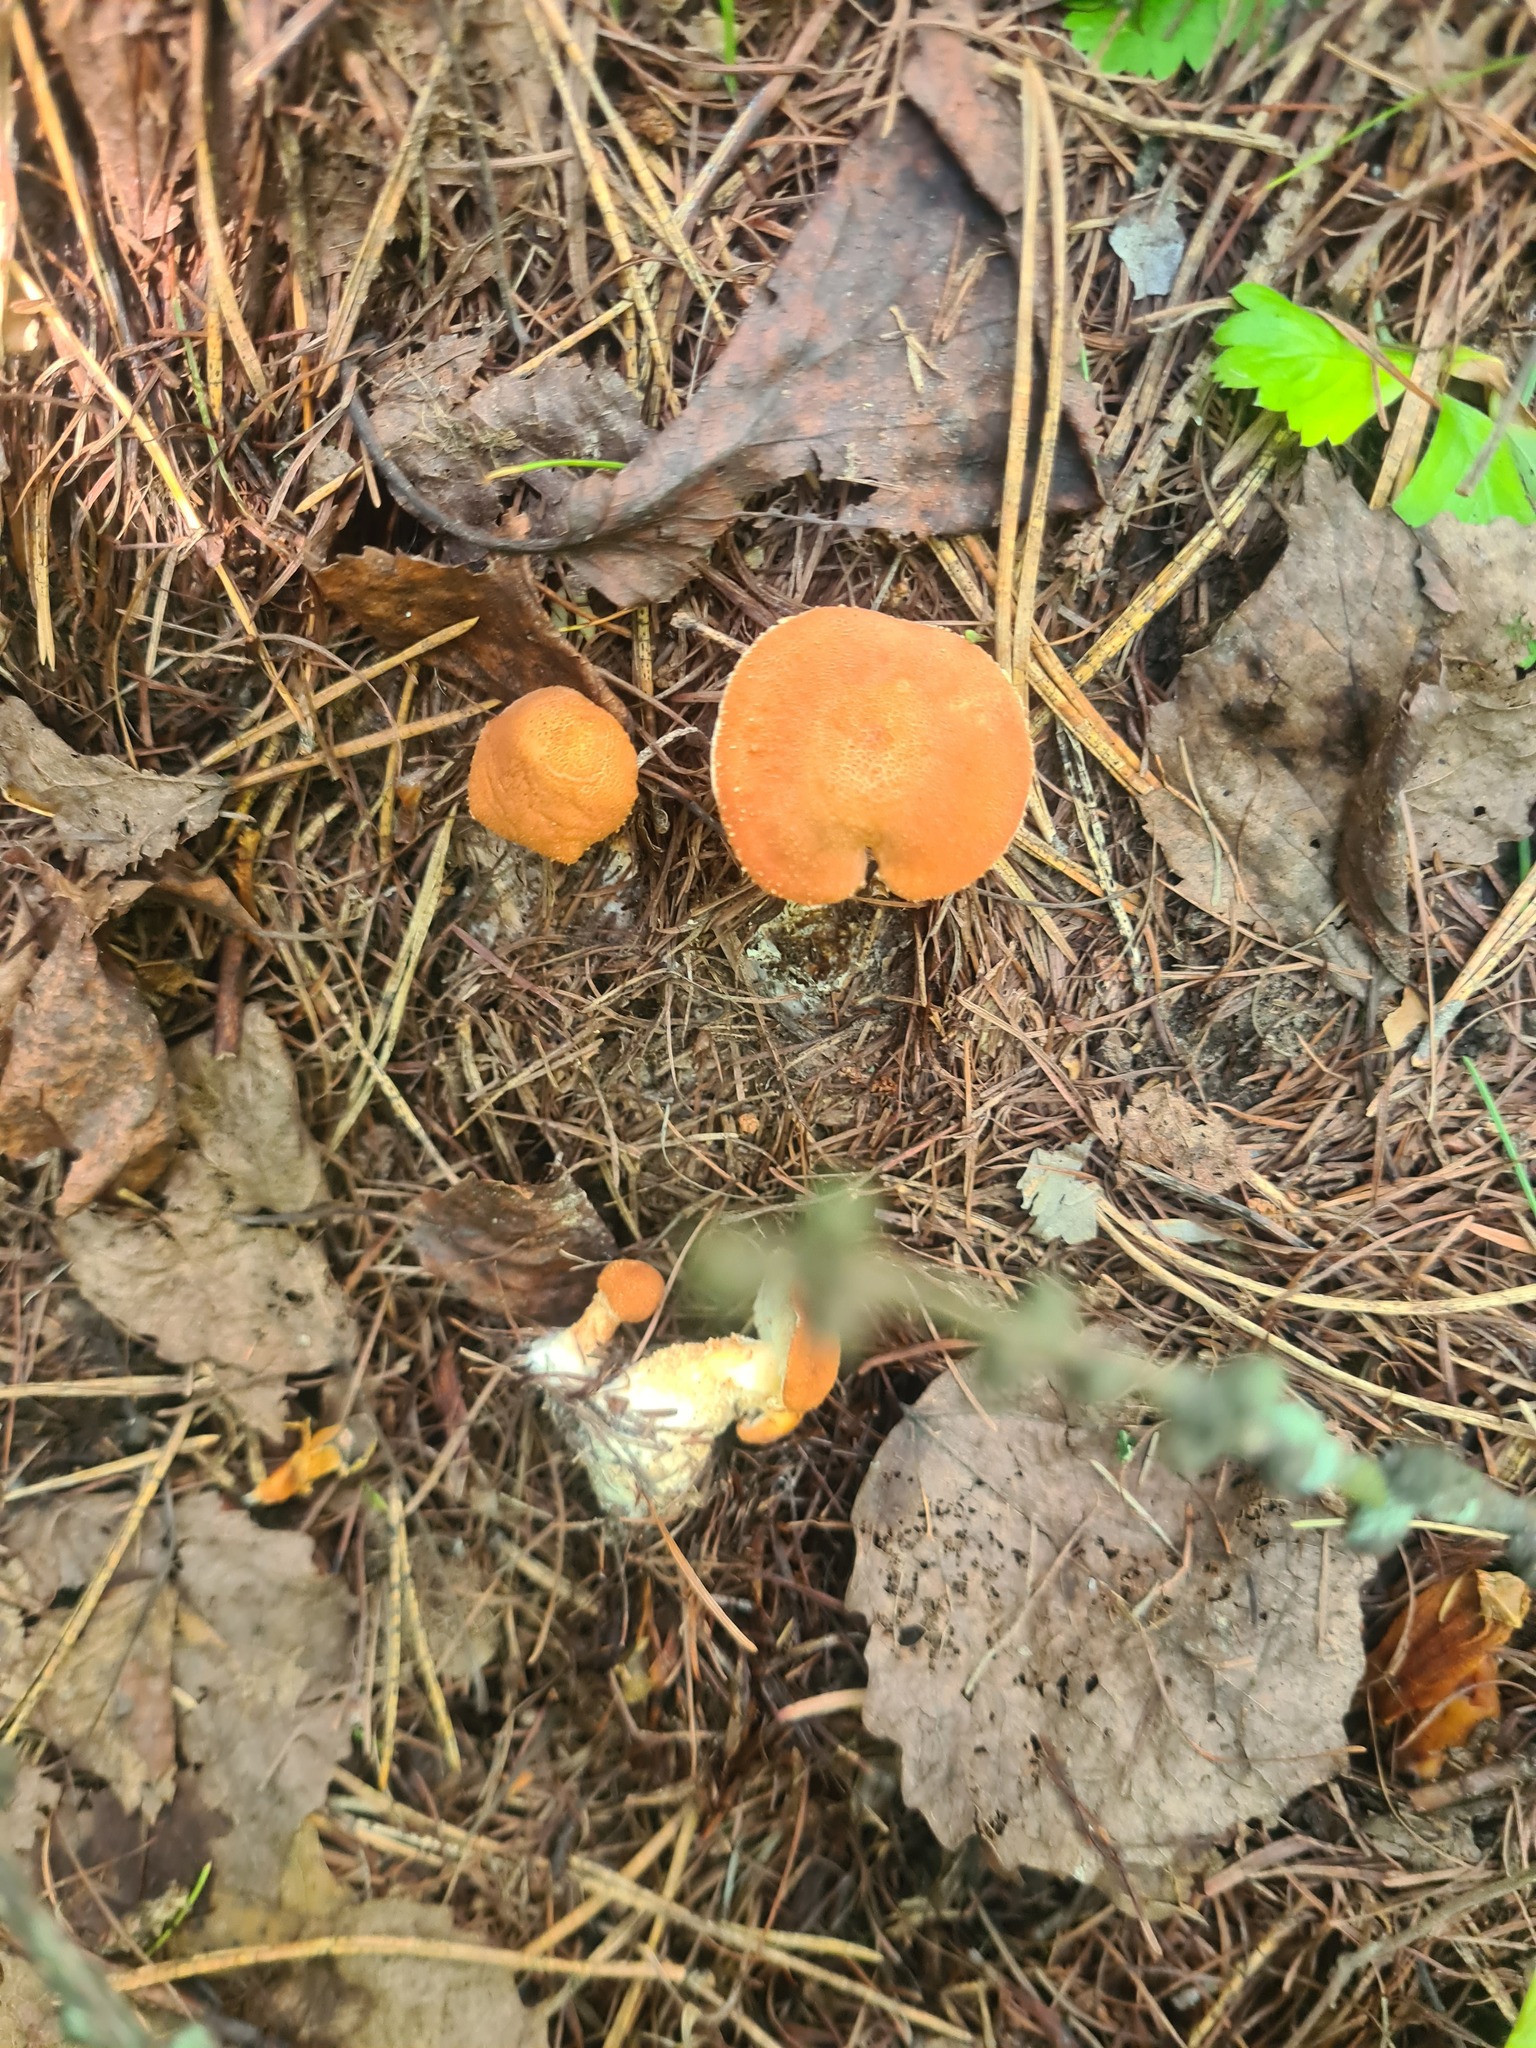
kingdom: Fungi
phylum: Basidiomycota
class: Agaricomycetes
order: Agaricales
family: Agaricaceae
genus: Cystodermella
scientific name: Cystodermella cinnabarina
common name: Cinnabar powdercap
